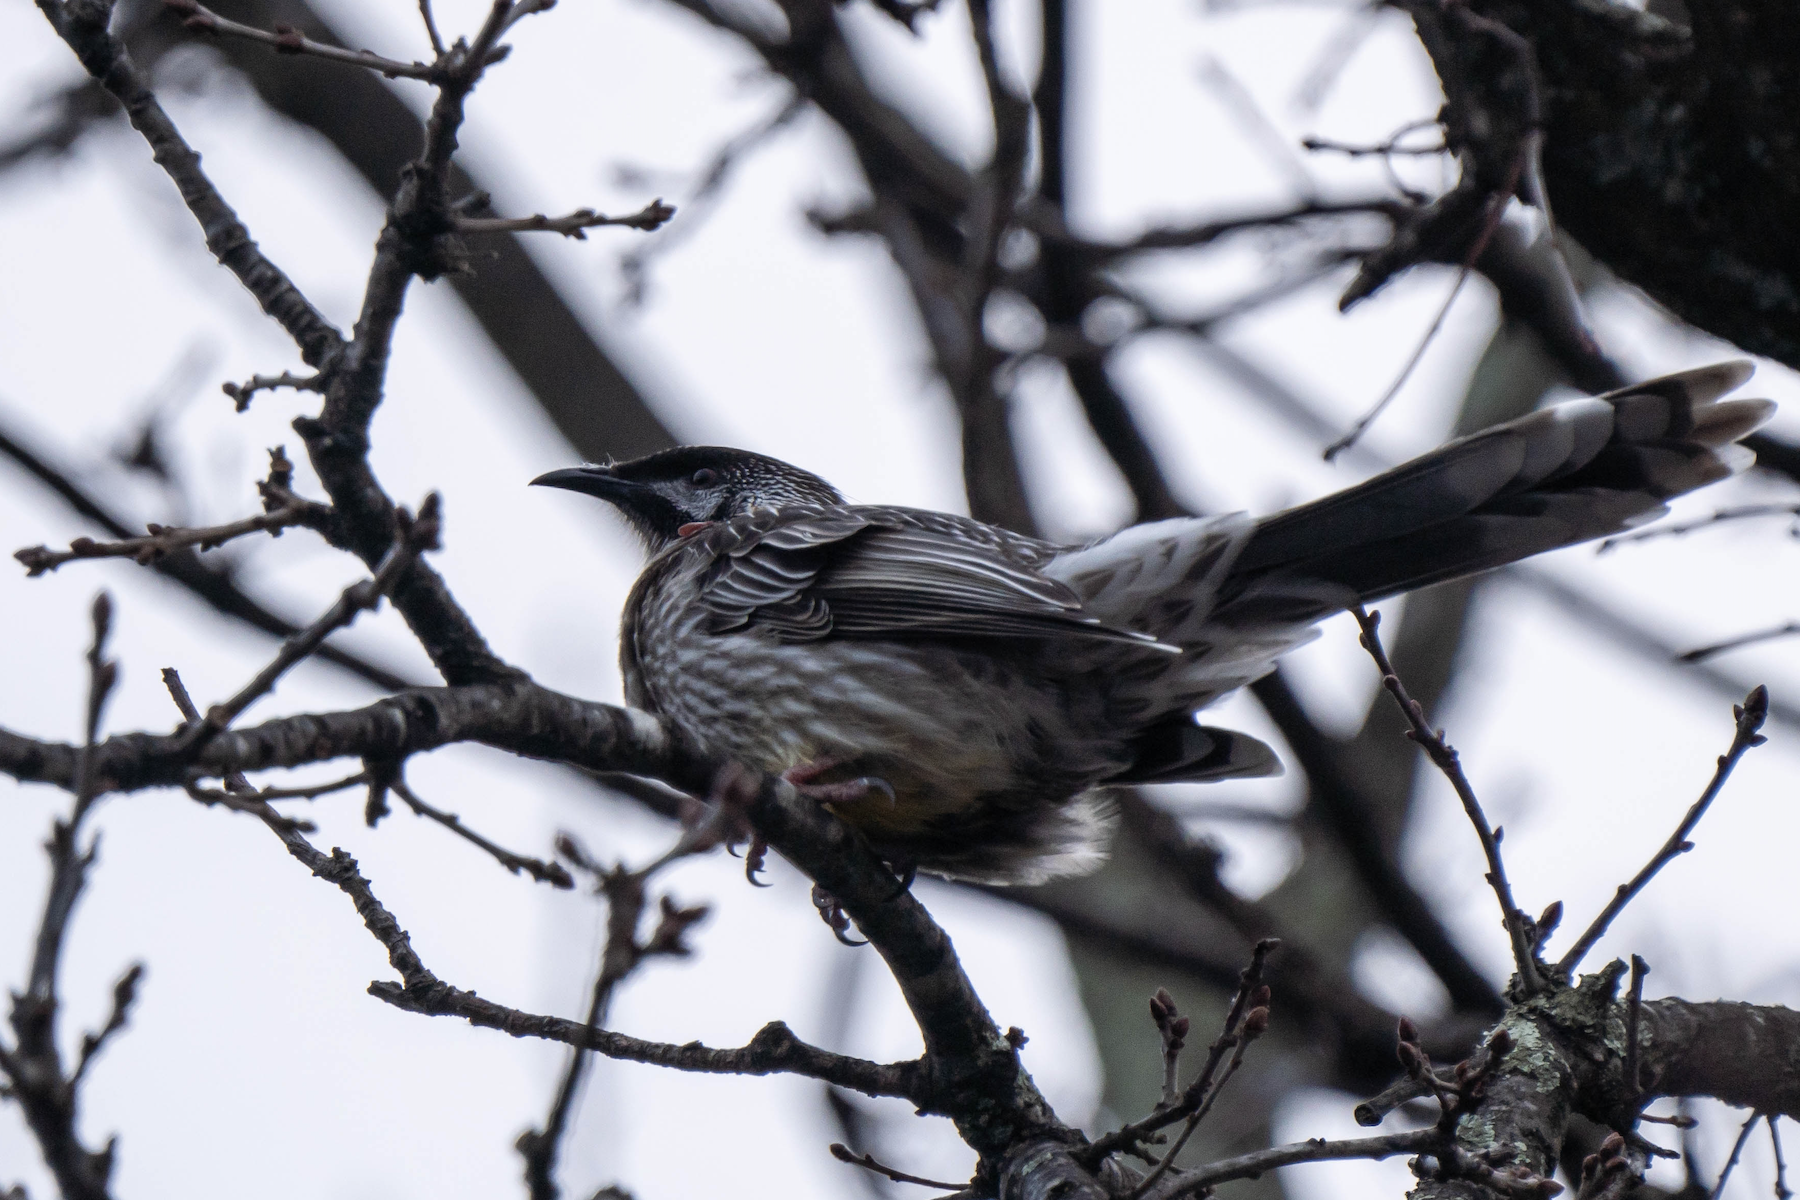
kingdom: Animalia
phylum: Chordata
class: Aves
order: Passeriformes
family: Meliphagidae
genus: Anthochaera
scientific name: Anthochaera carunculata
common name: Red wattlebird
